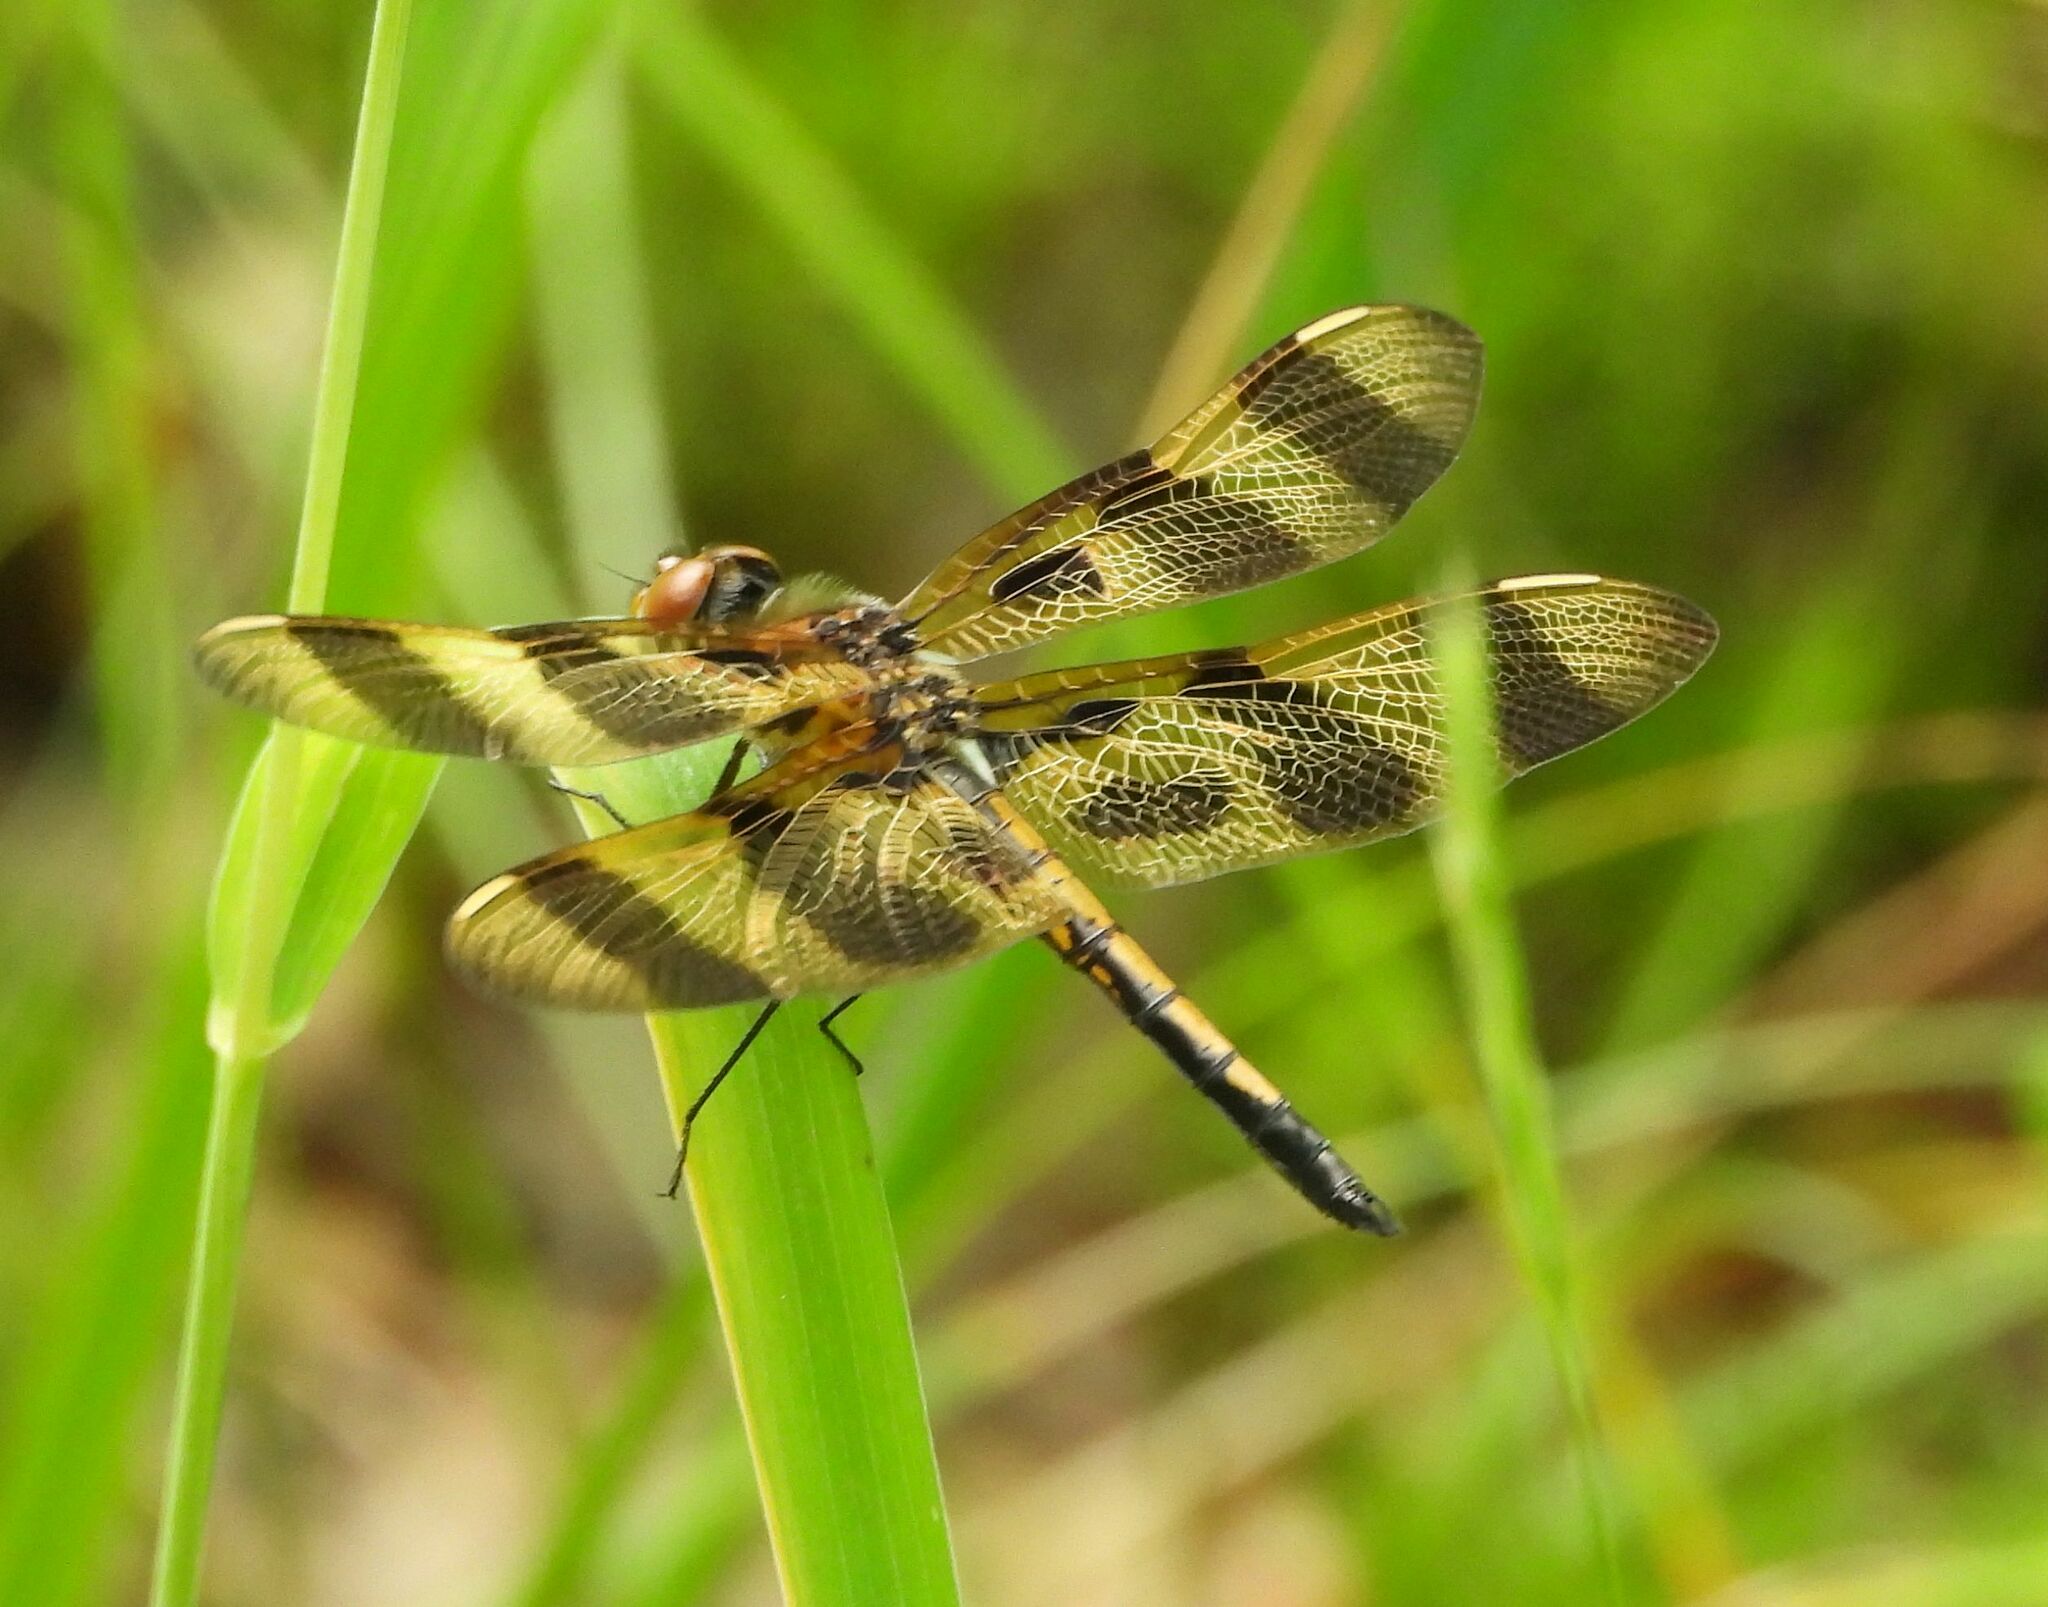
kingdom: Animalia
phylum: Arthropoda
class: Insecta
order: Odonata
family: Libellulidae
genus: Celithemis
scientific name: Celithemis eponina
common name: Halloween pennant
